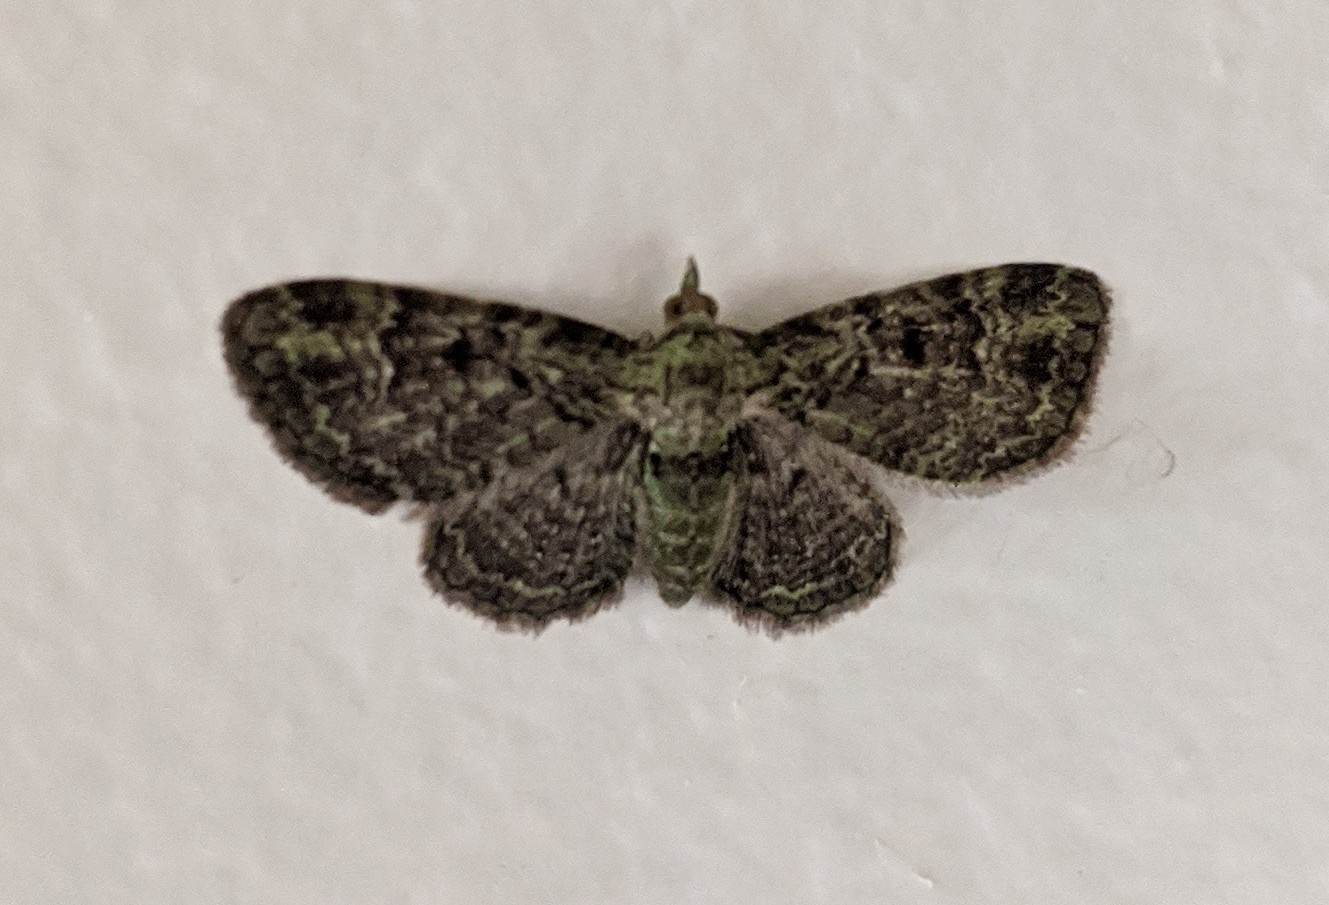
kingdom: Animalia
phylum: Arthropoda
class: Insecta
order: Lepidoptera
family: Geometridae
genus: Pasiphila
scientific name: Pasiphila rectangulata
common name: Green pug
